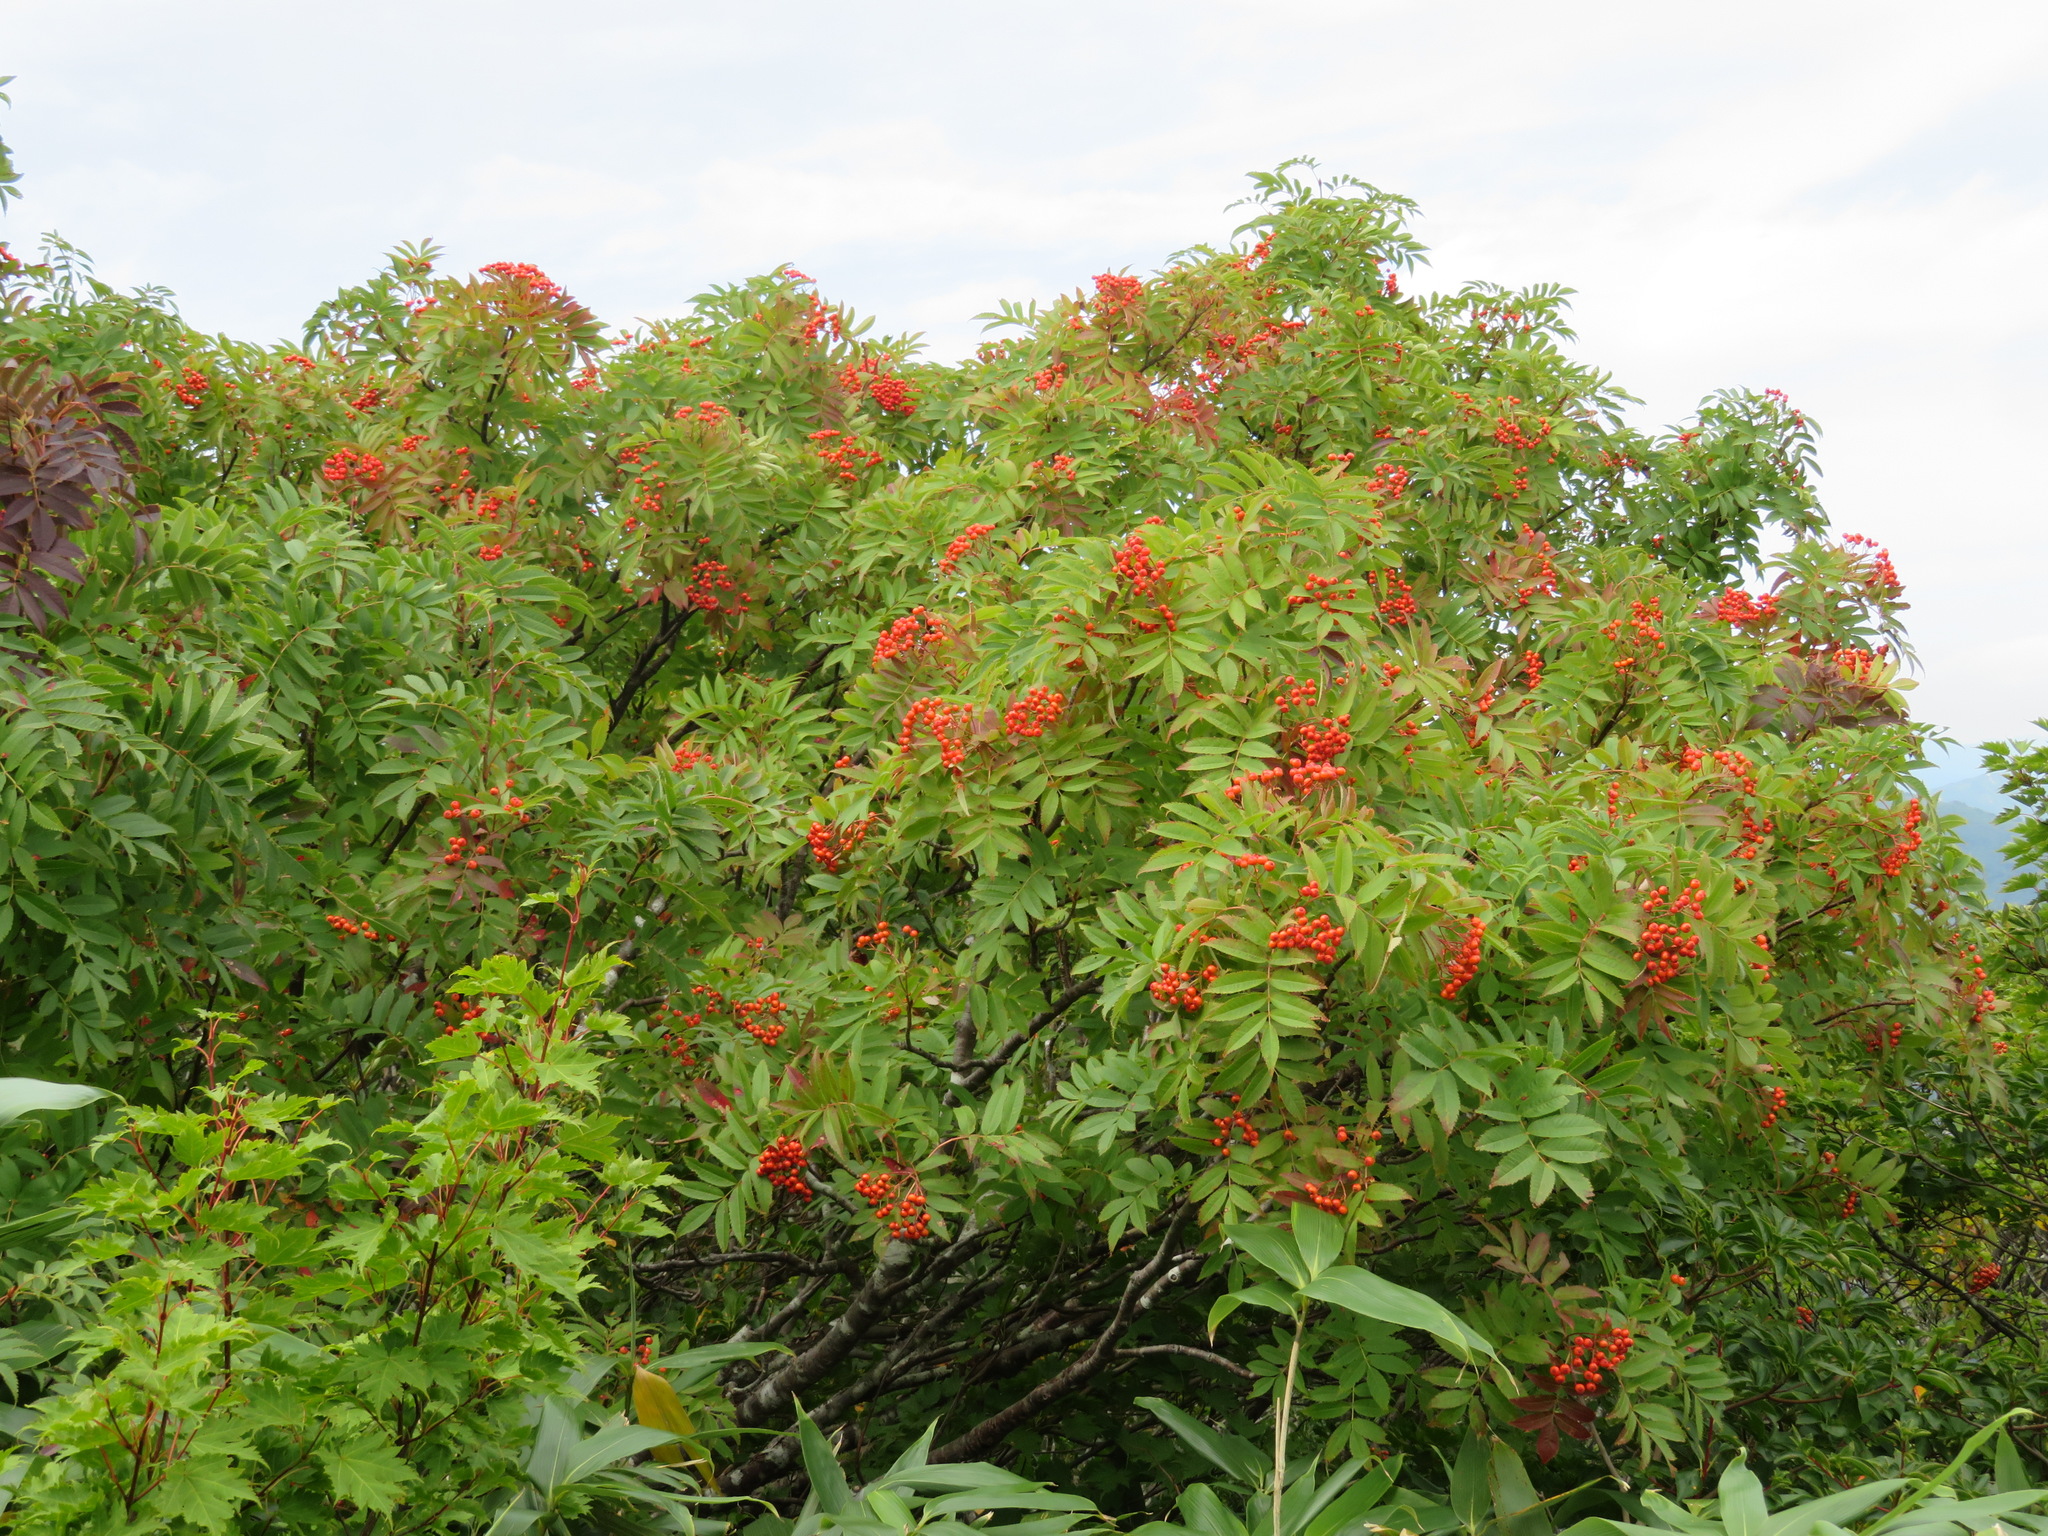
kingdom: Plantae
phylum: Tracheophyta
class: Magnoliopsida
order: Rosales
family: Rosaceae
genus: Sorbus
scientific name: Sorbus sambucifolia
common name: Siberian mountain-ash
